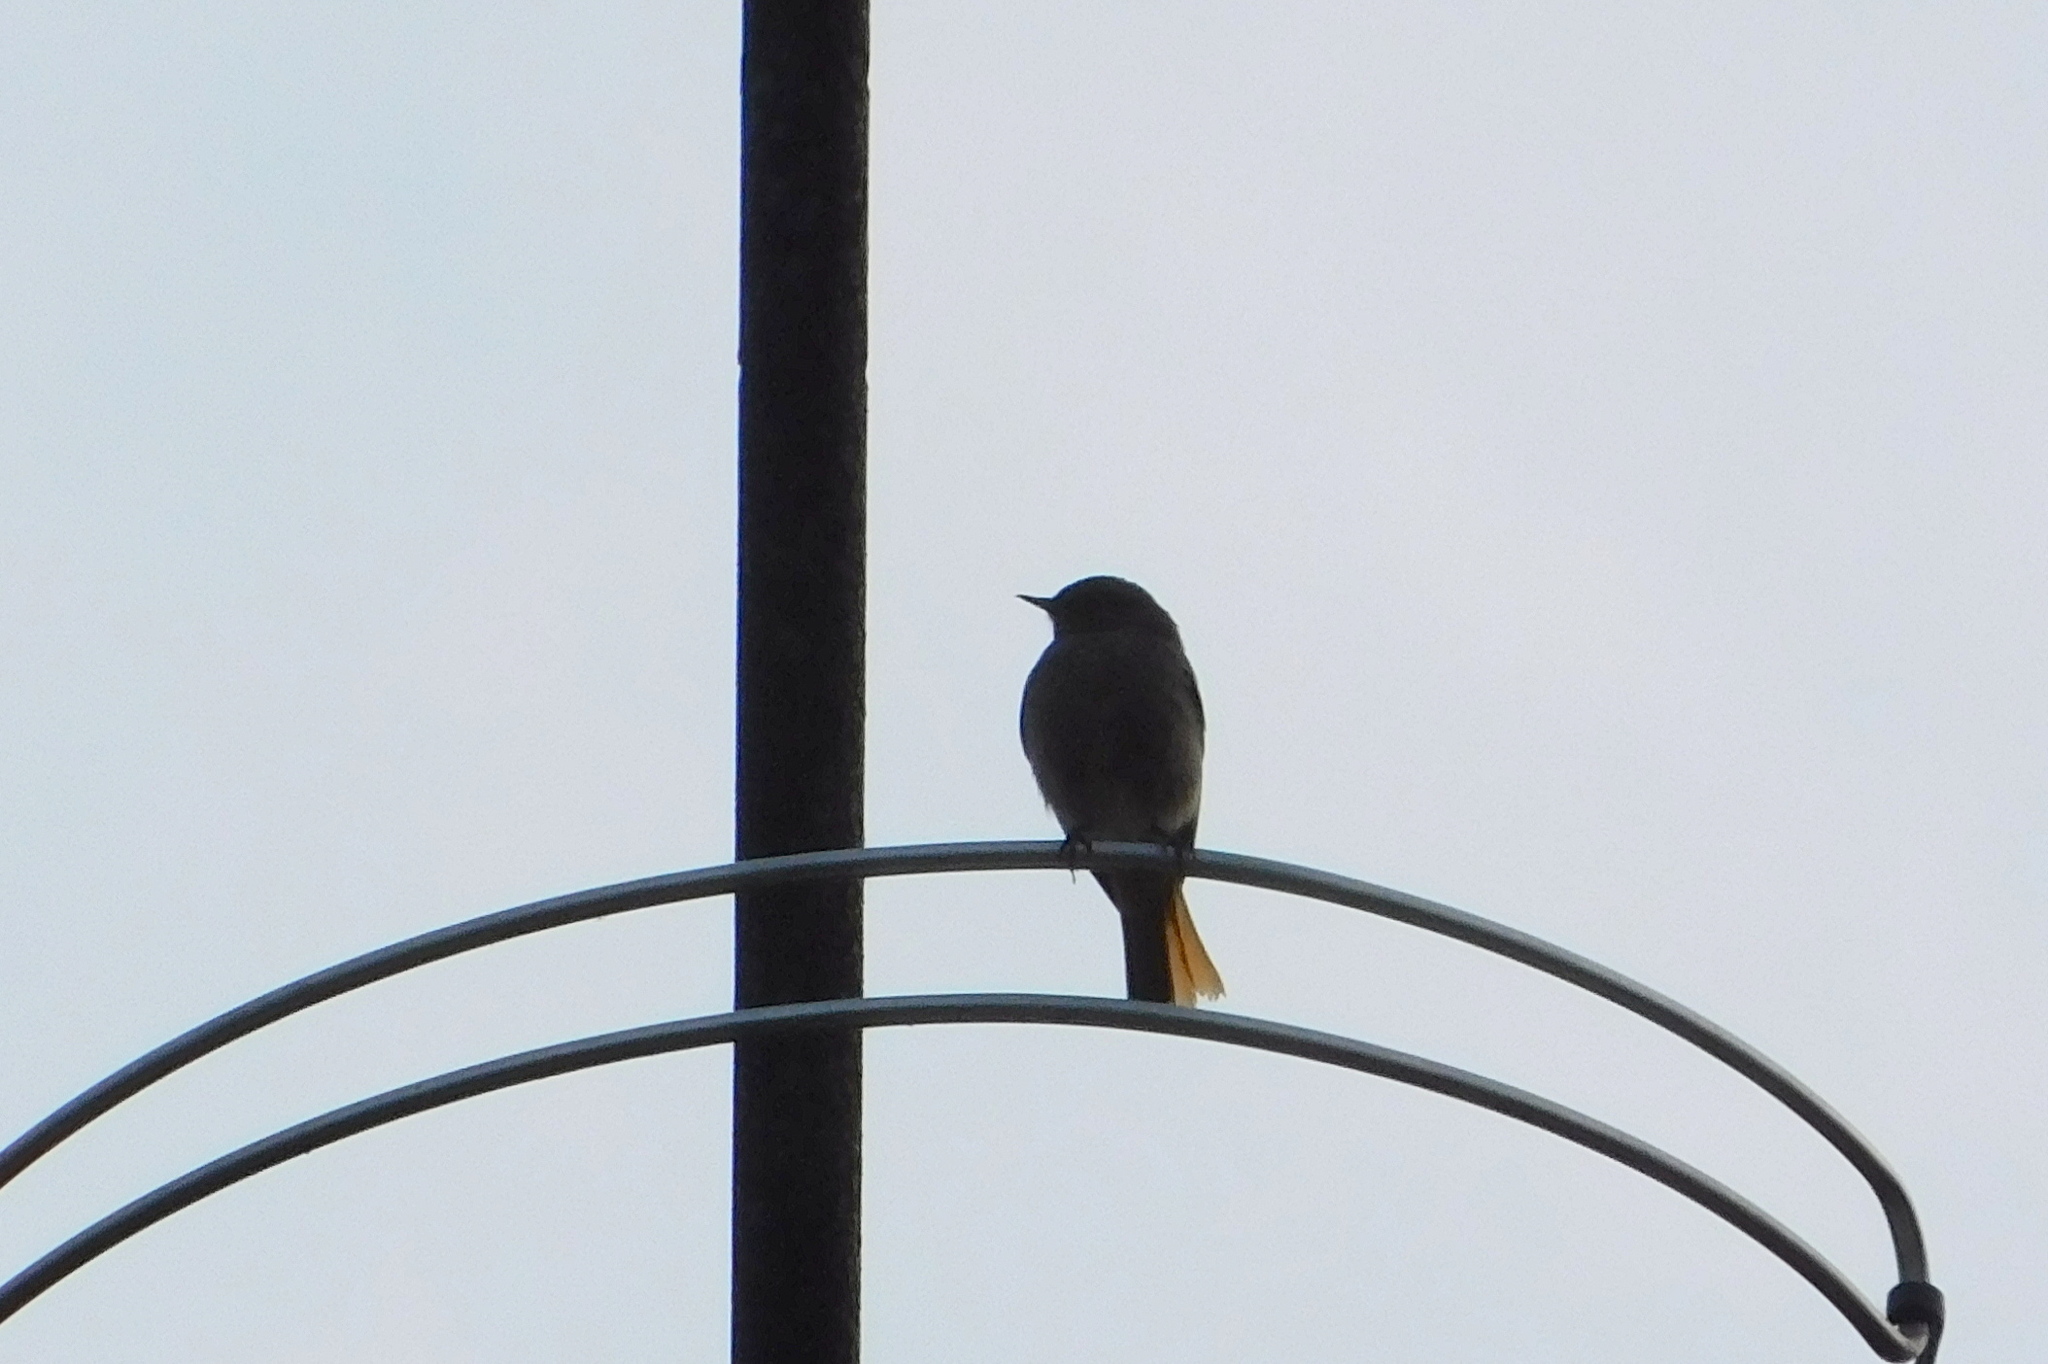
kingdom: Animalia
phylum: Chordata
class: Aves
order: Passeriformes
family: Muscicapidae
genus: Phoenicurus
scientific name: Phoenicurus ochruros
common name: Black redstart
